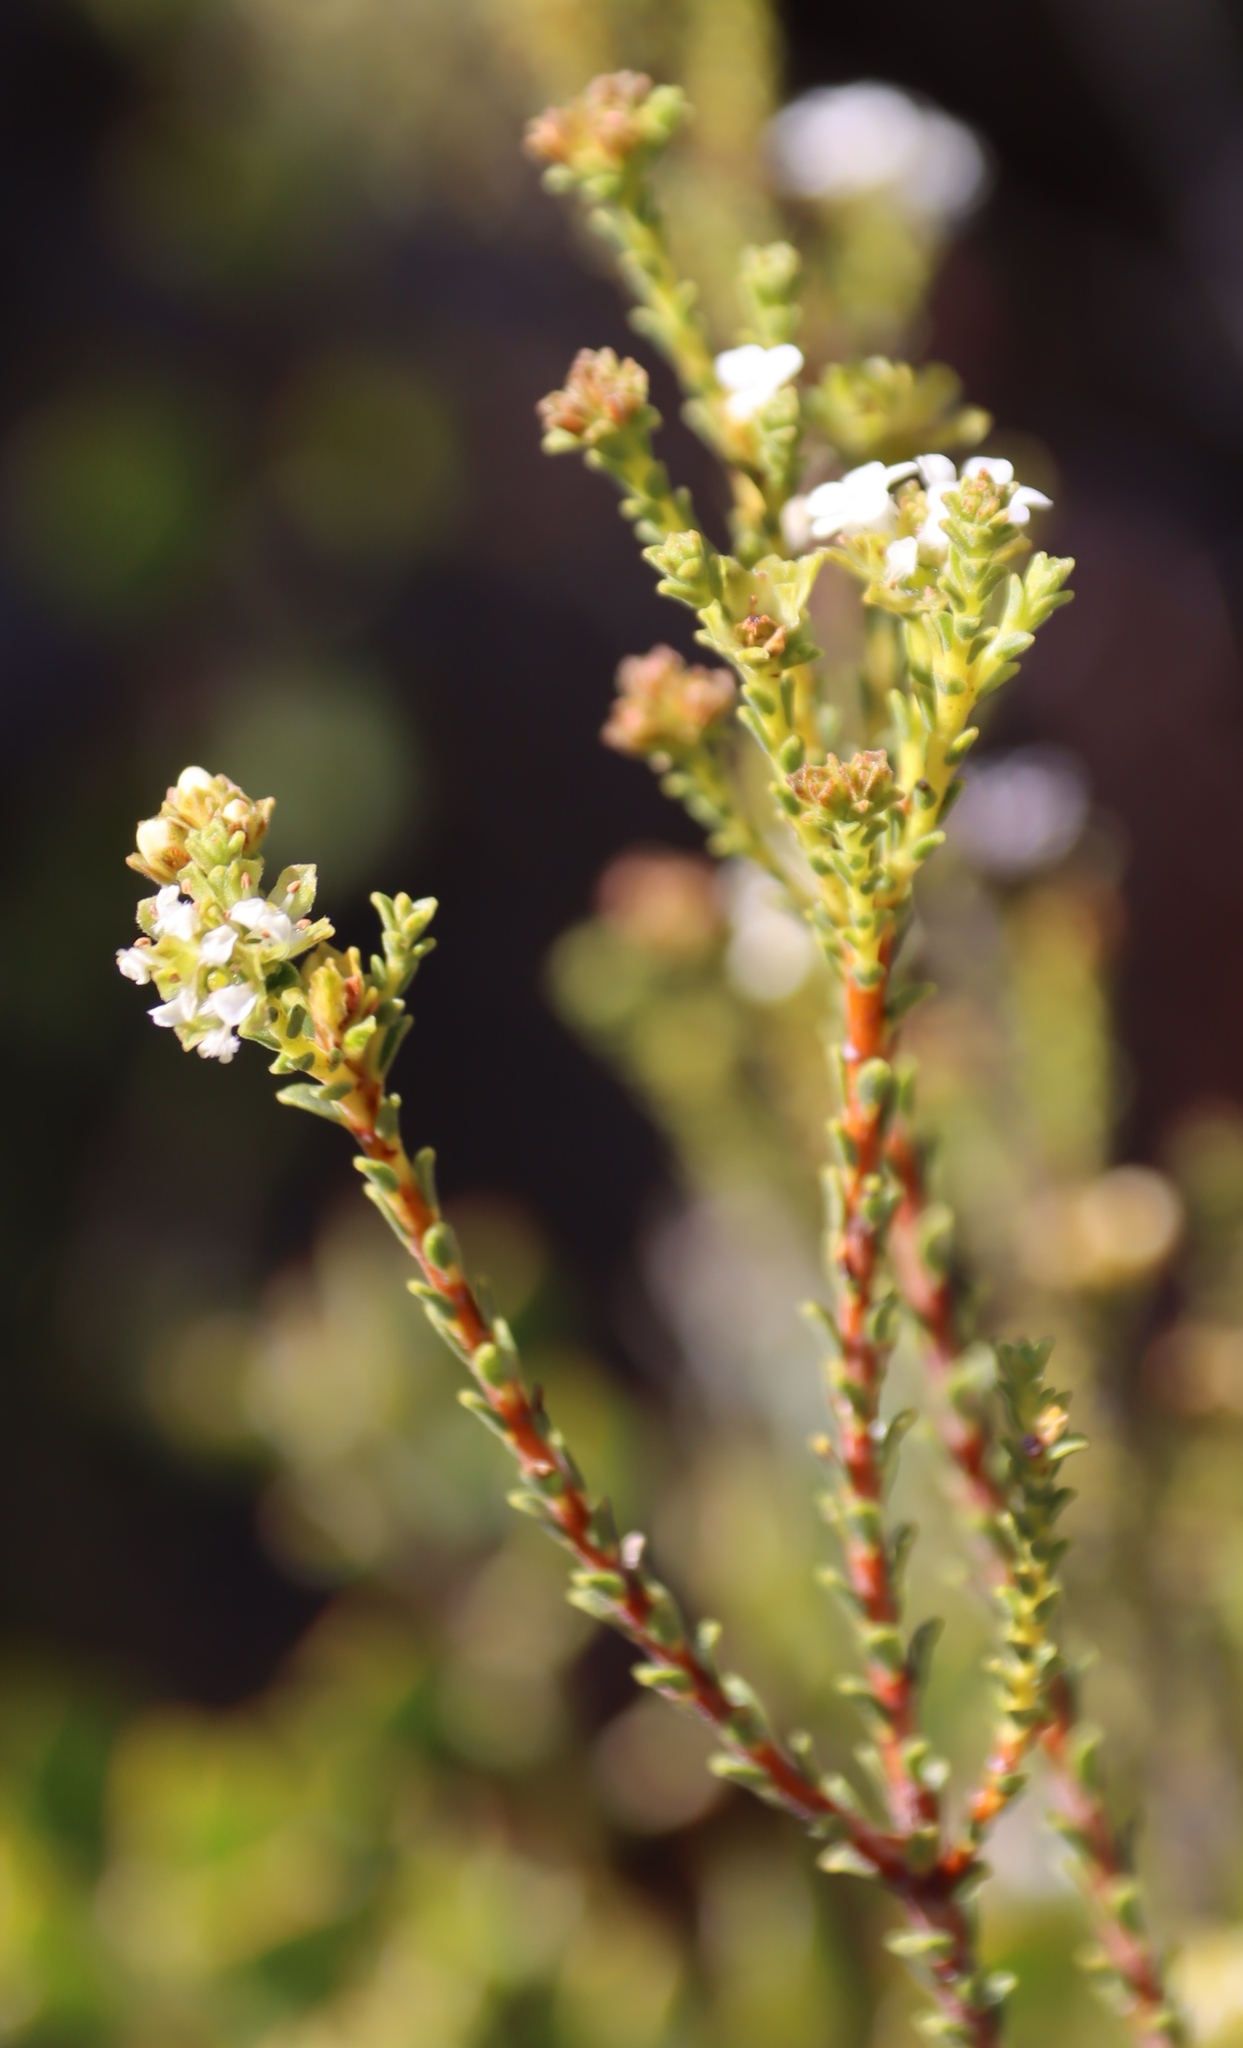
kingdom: Plantae
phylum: Tracheophyta
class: Magnoliopsida
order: Sapindales
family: Rutaceae
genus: Euchaetis
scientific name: Euchaetis vallis-simiae
